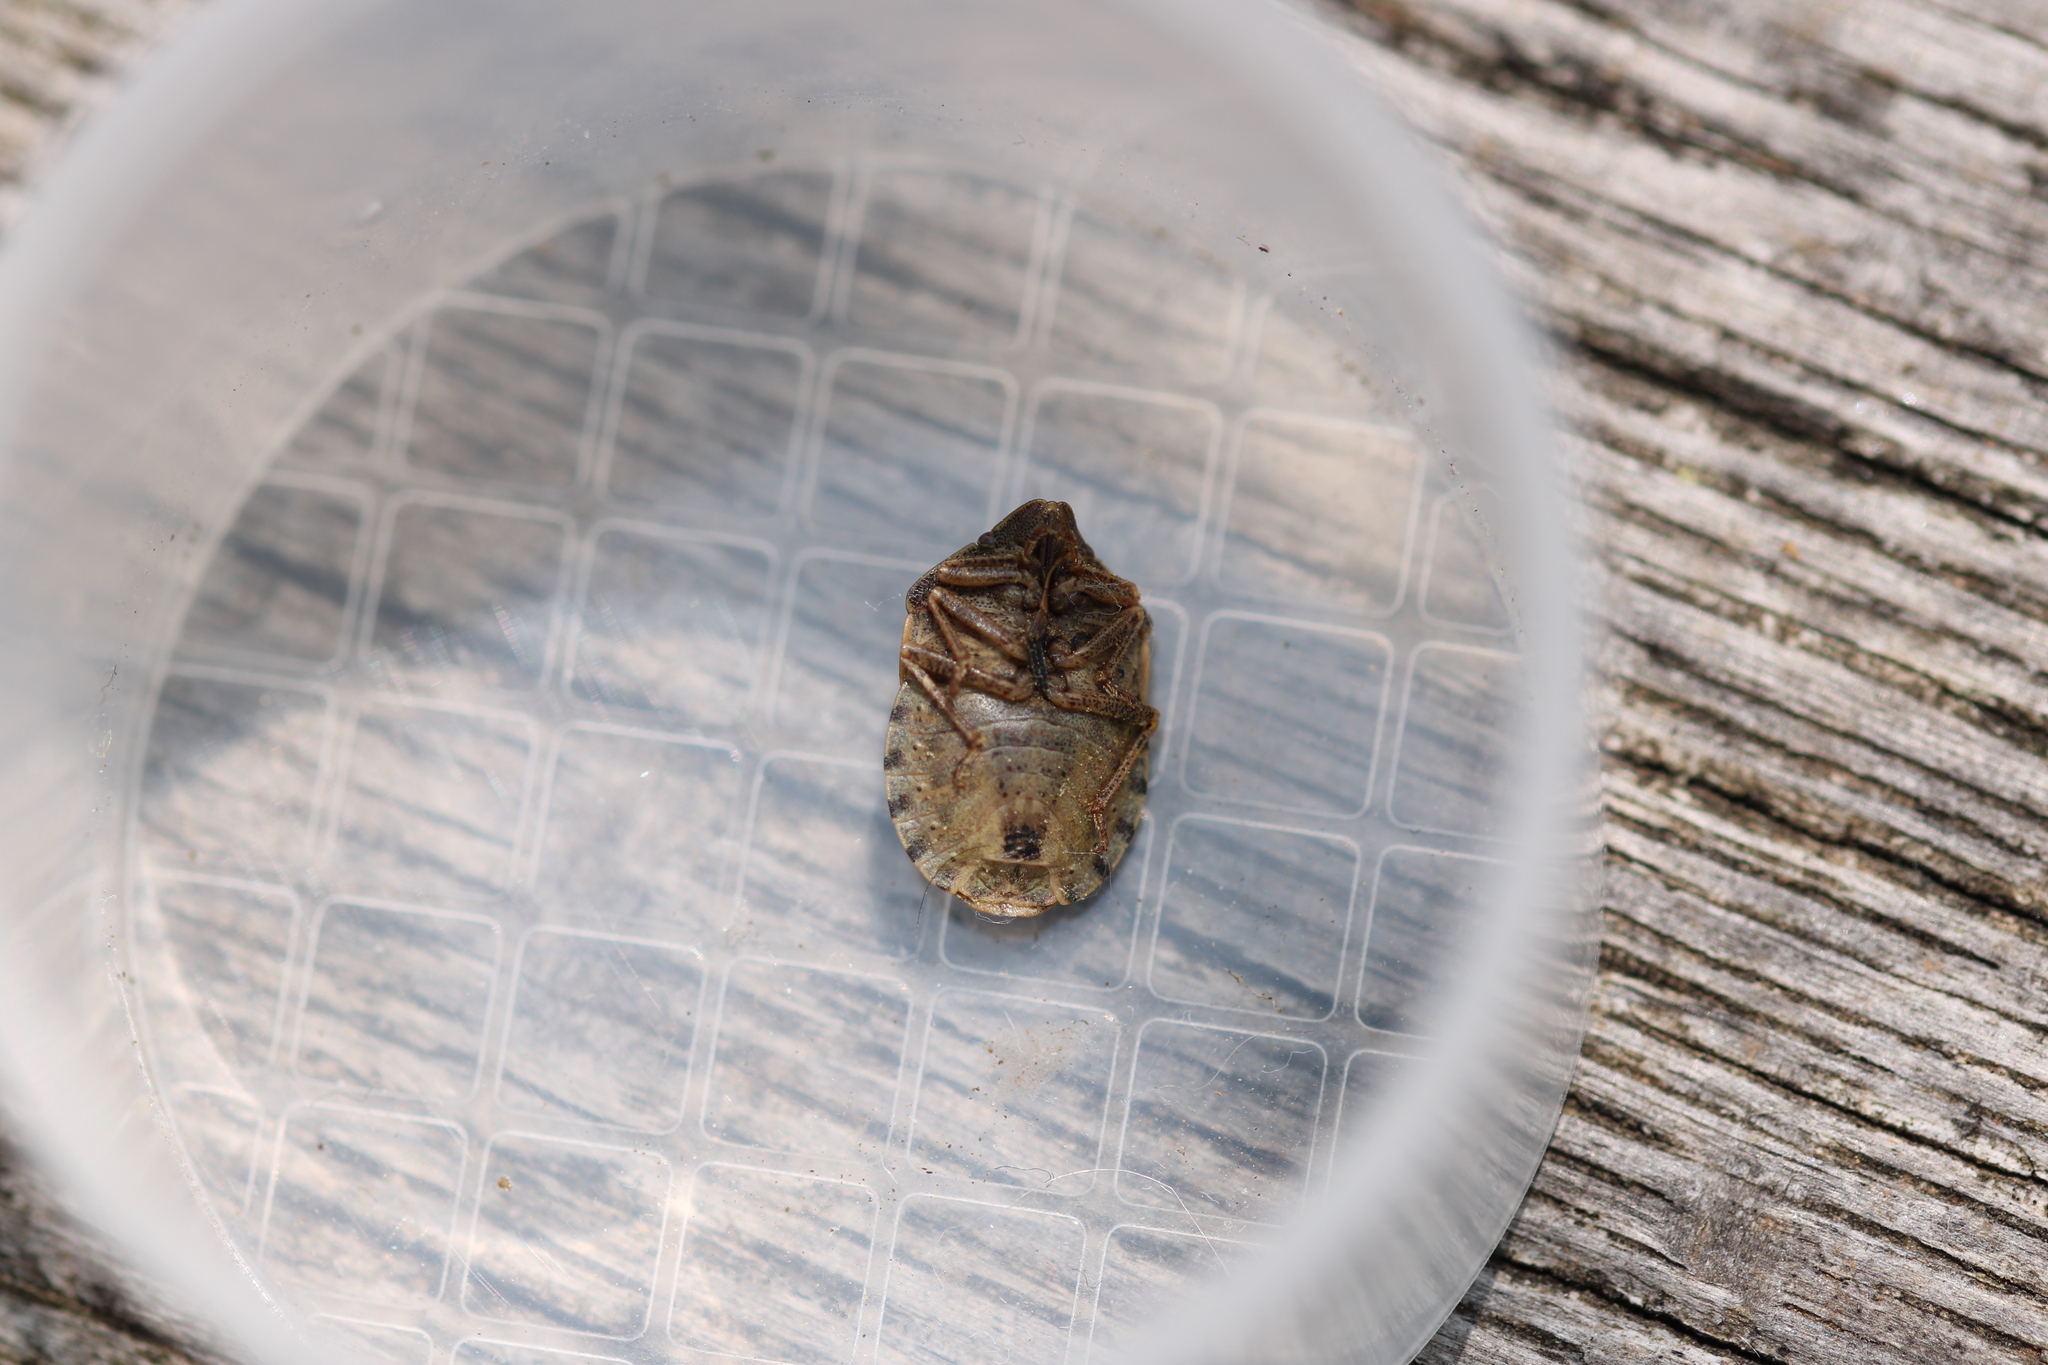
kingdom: Animalia
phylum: Arthropoda
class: Insecta
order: Hemiptera
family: Scutelleridae
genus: Eurygaster
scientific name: Eurygaster testudinaria
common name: Tortoise bug
